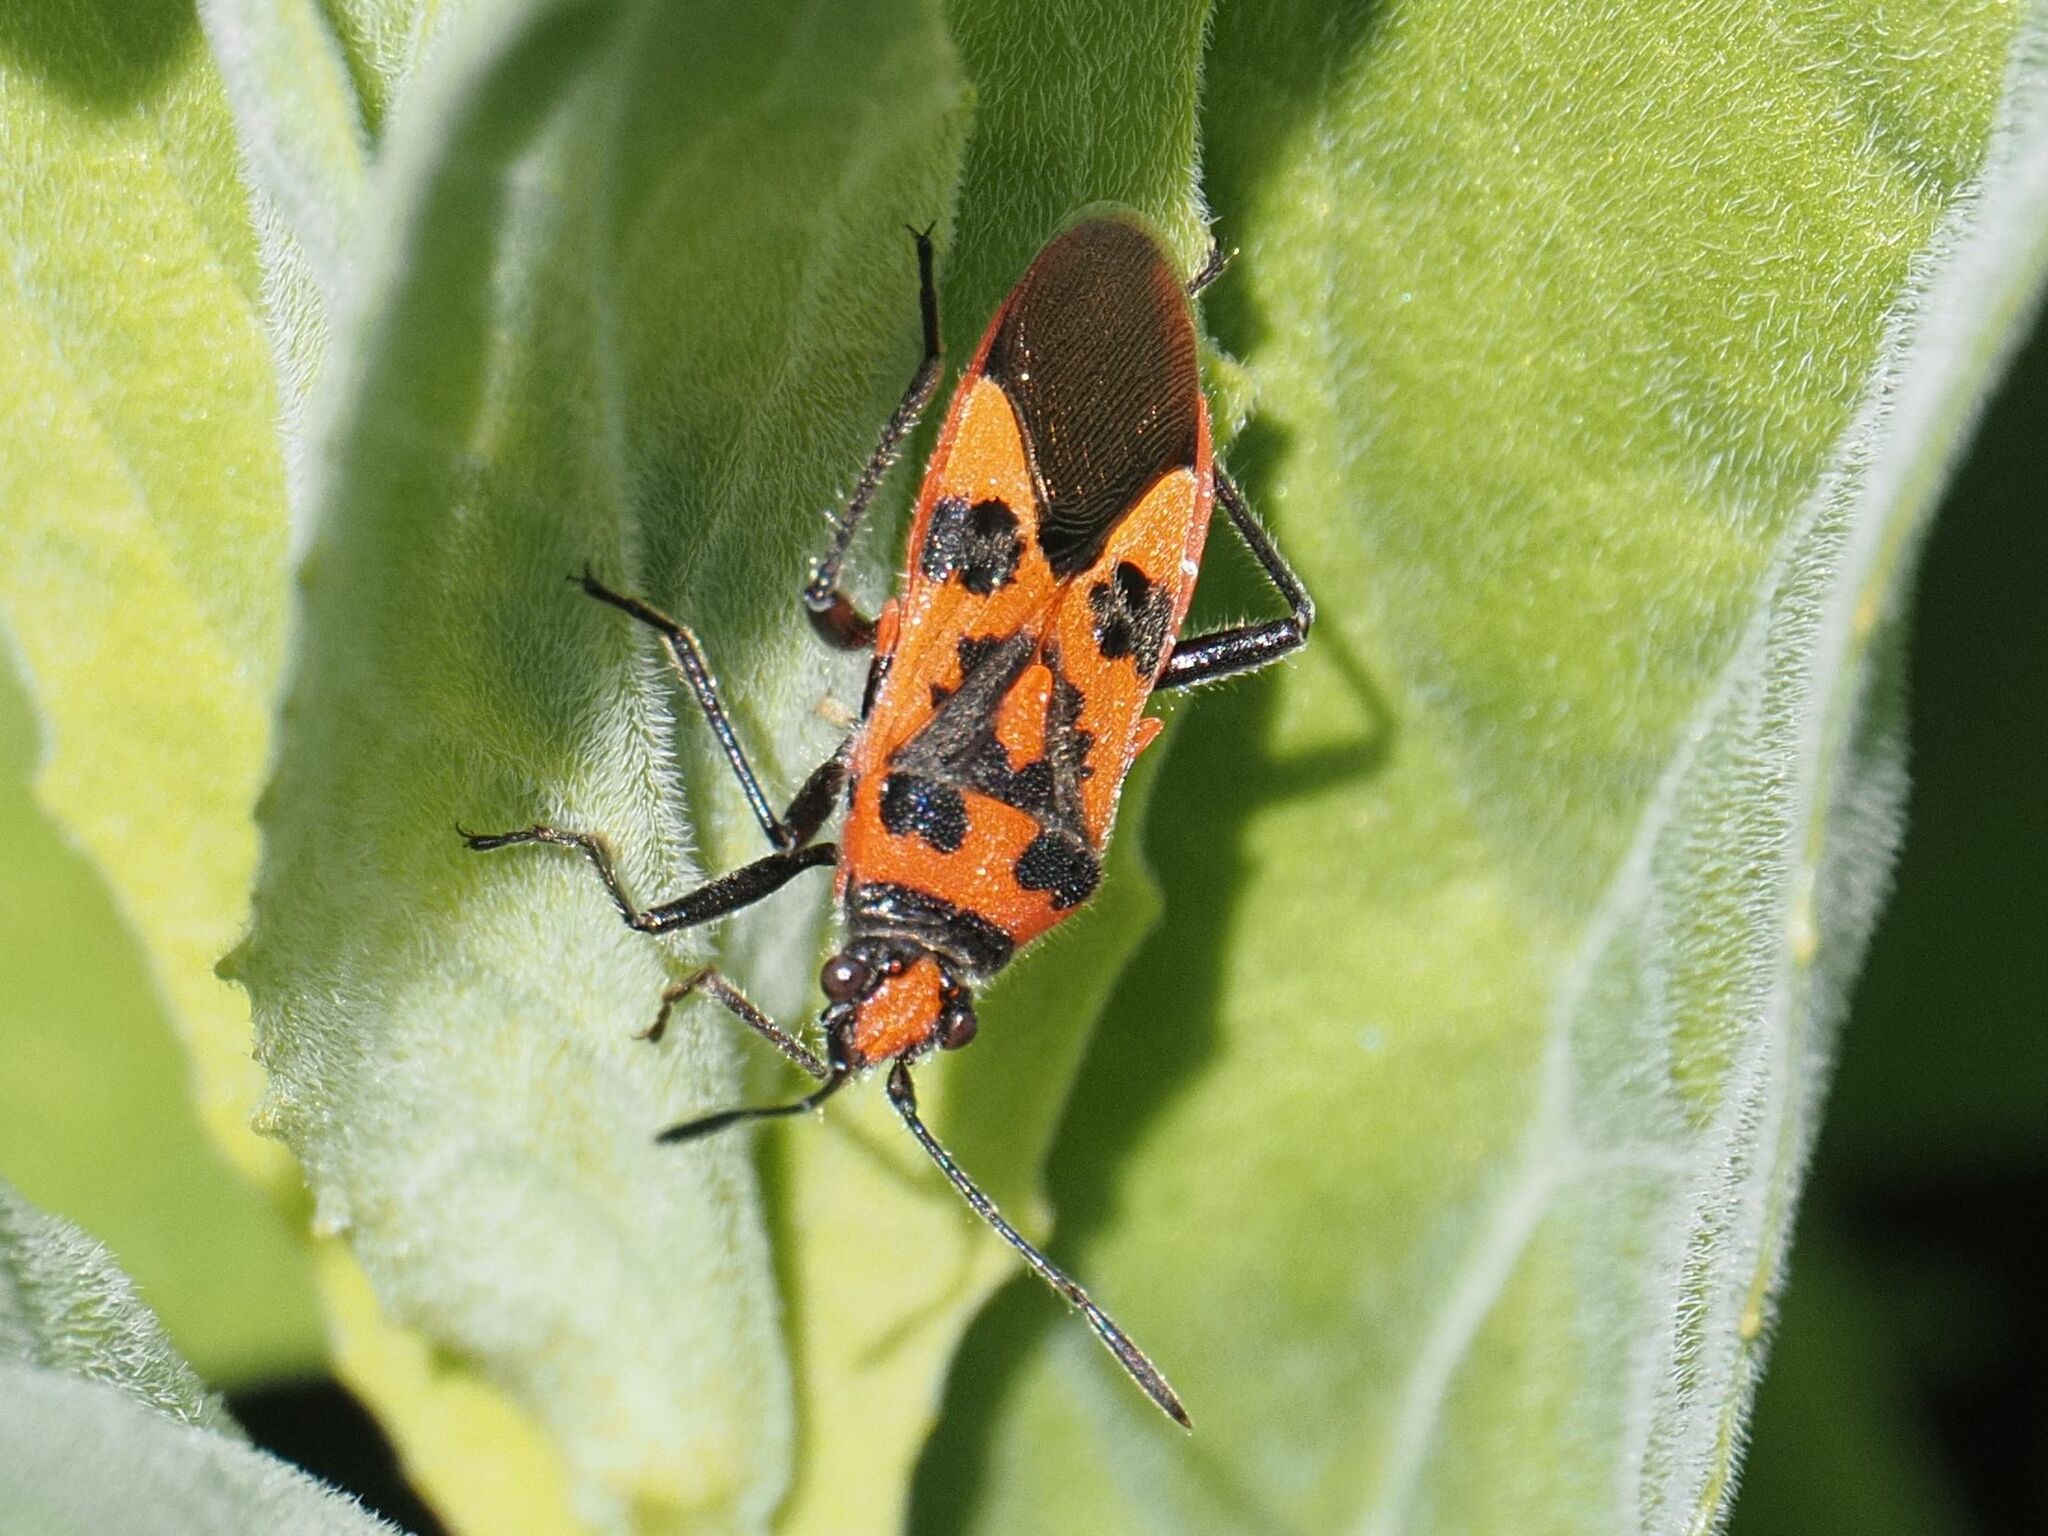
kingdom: Animalia
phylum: Arthropoda
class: Insecta
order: Hemiptera
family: Rhopalidae
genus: Corizus
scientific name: Corizus hyoscyami
